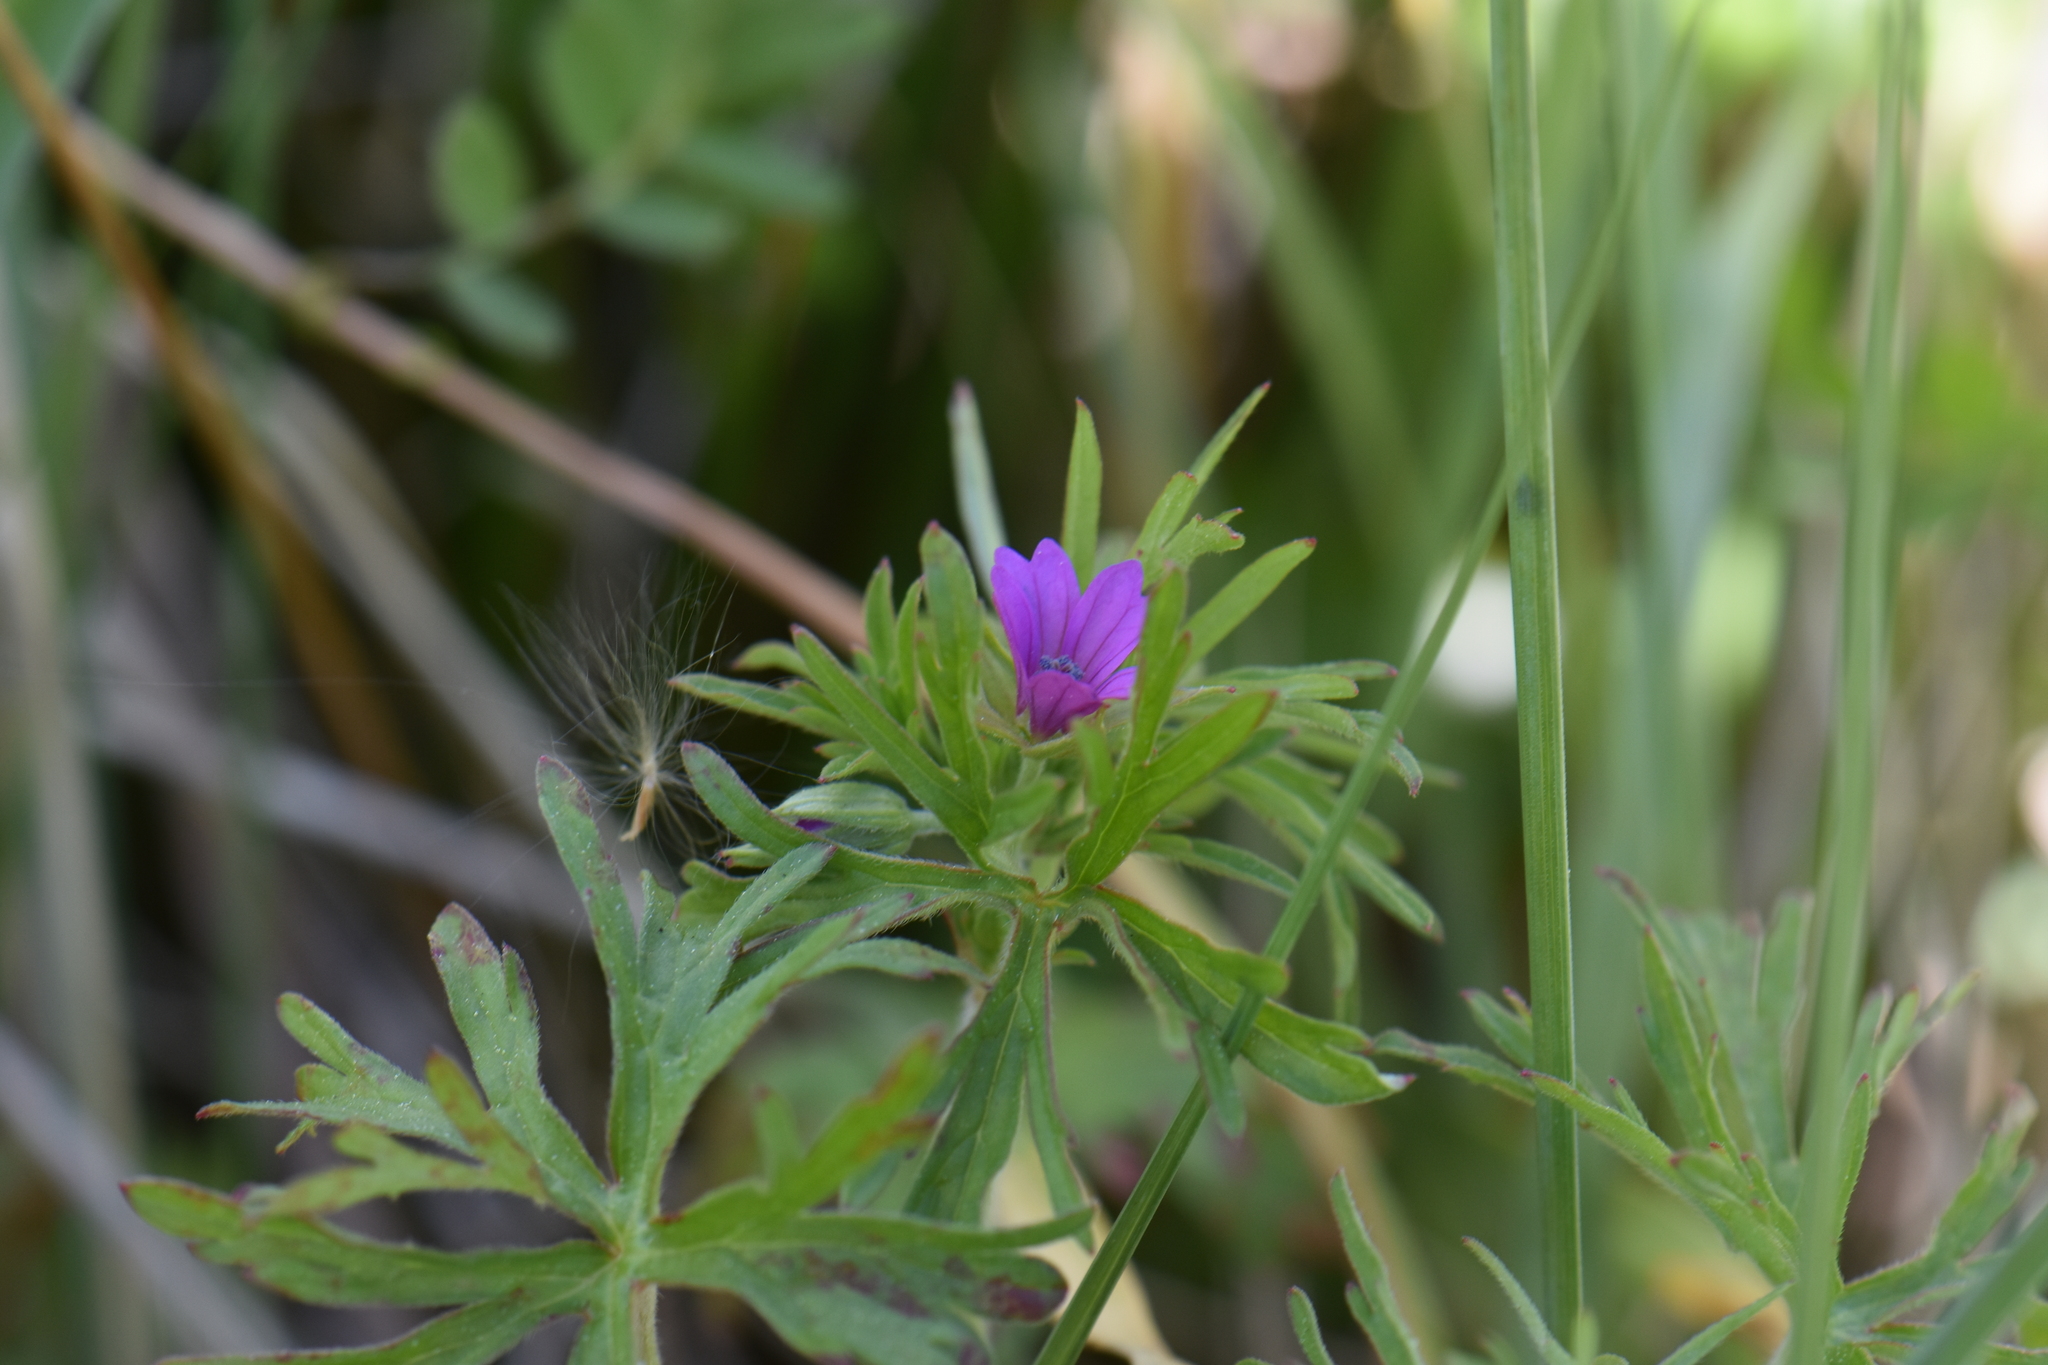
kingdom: Plantae
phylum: Tracheophyta
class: Magnoliopsida
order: Geraniales
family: Geraniaceae
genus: Geranium
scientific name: Geranium dissectum
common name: Cut-leaved crane's-bill
